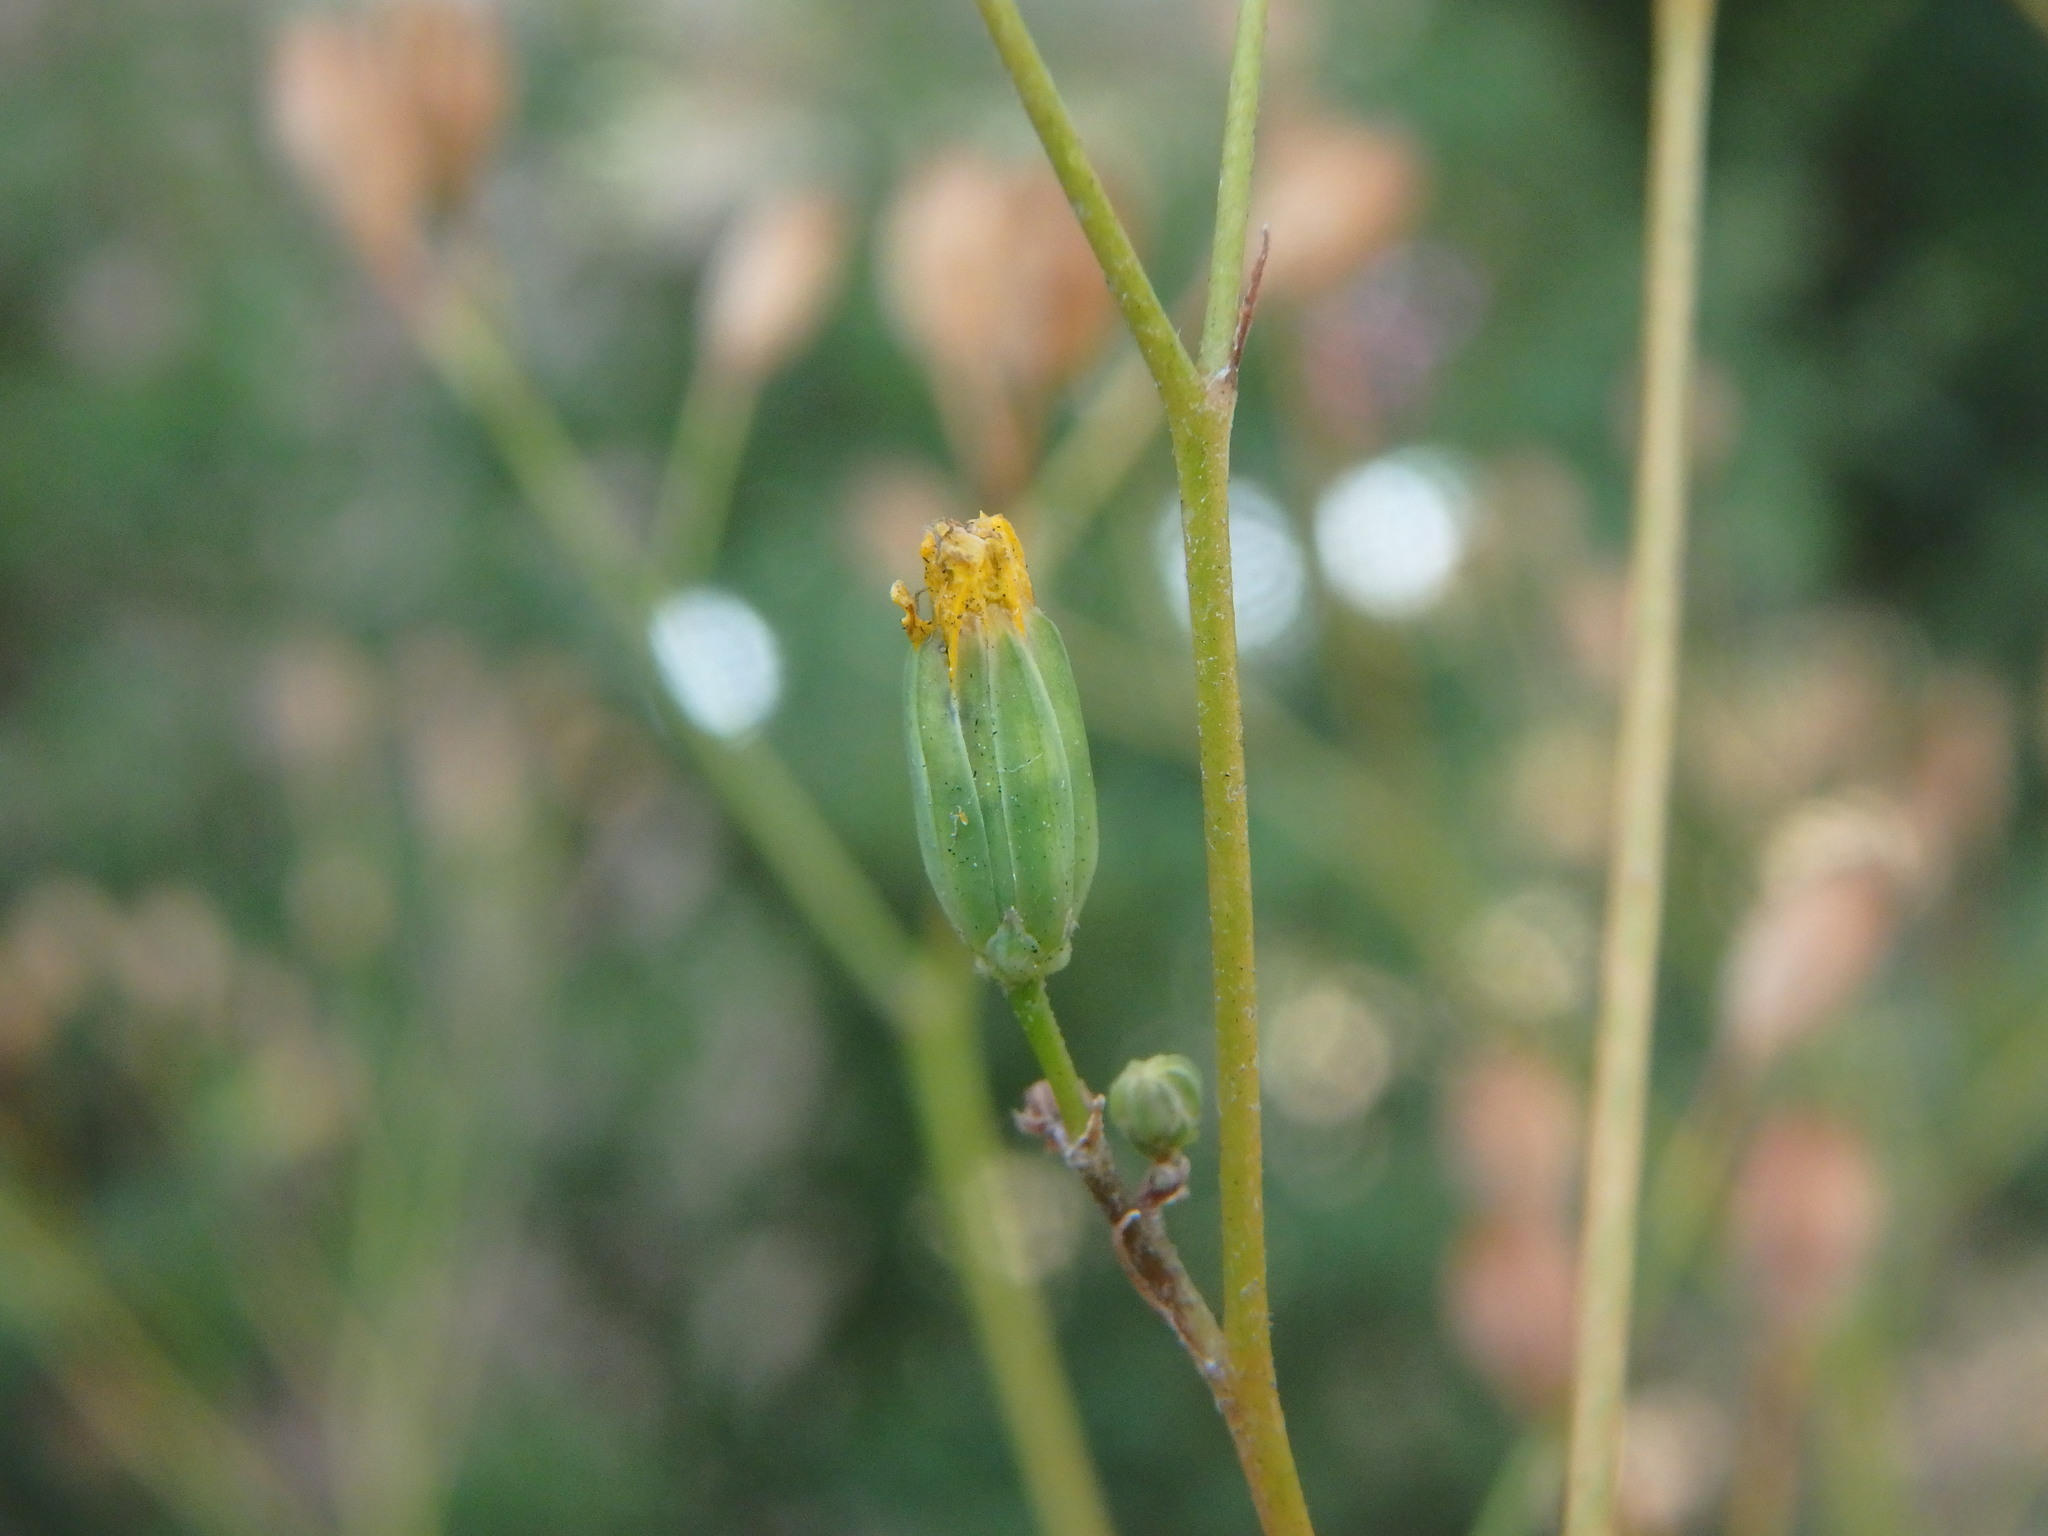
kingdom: Plantae
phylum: Tracheophyta
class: Magnoliopsida
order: Asterales
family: Asteraceae
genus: Lapsana
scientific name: Lapsana communis
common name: Nipplewort
